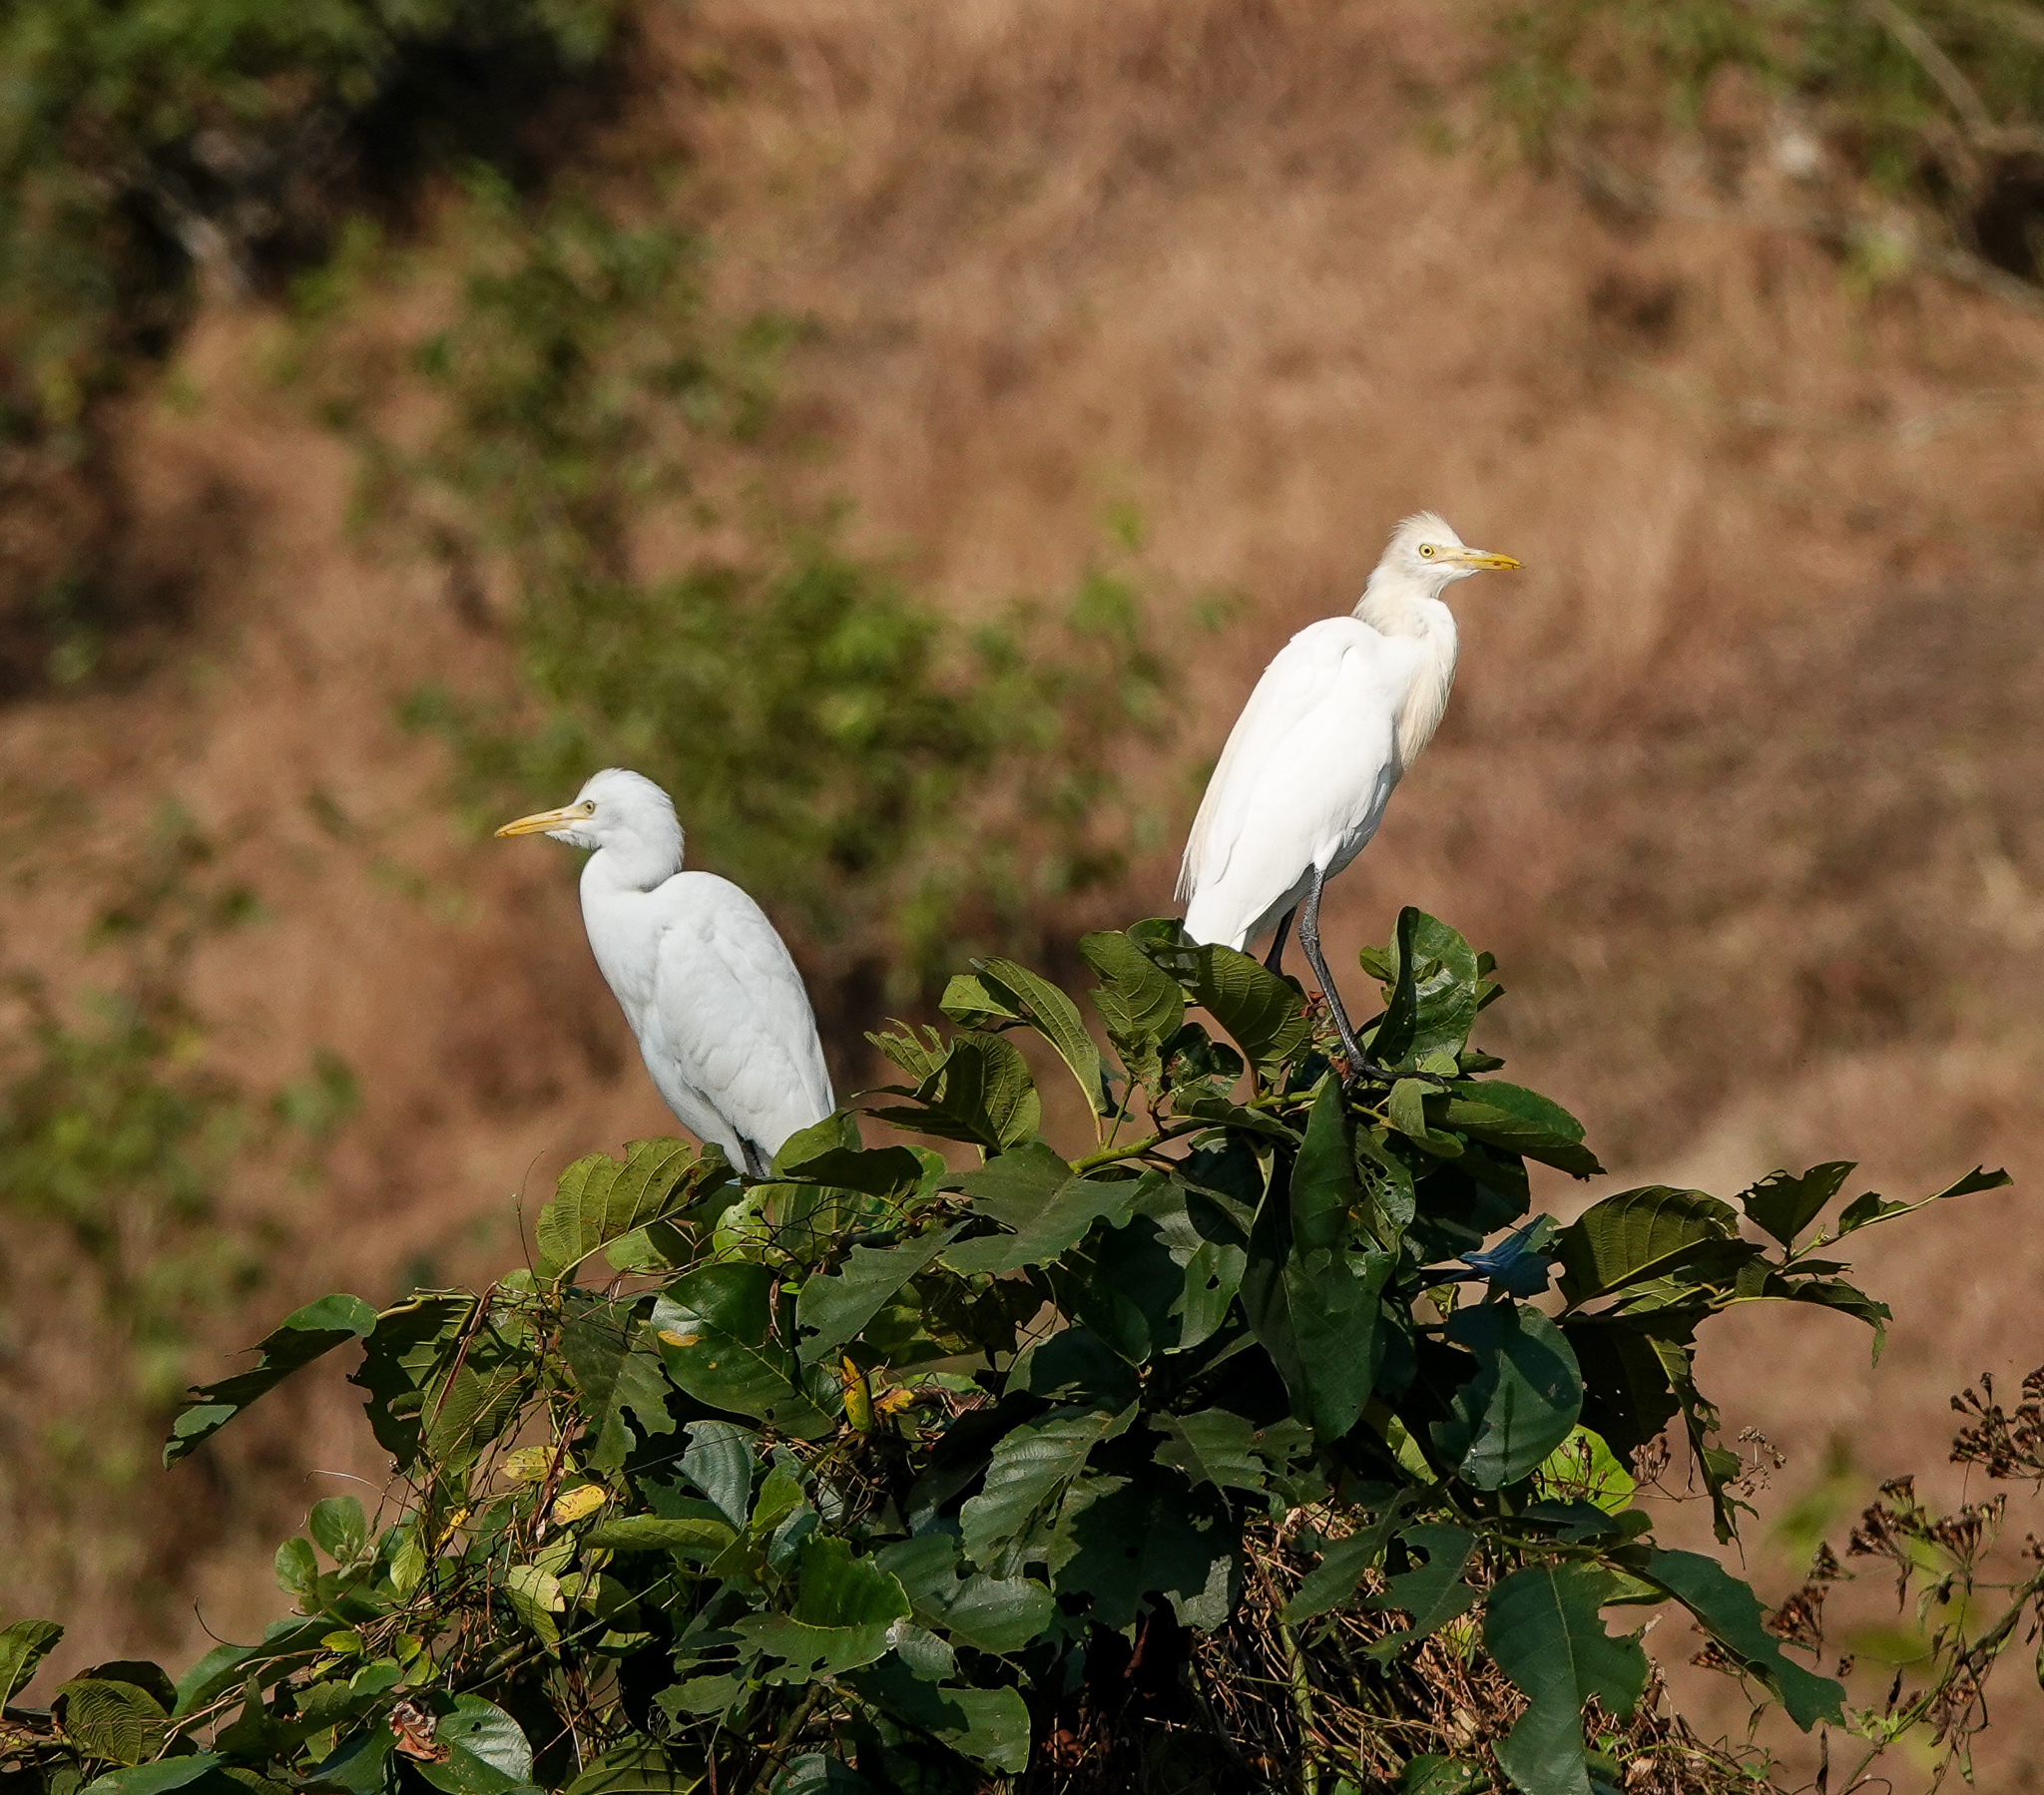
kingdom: Animalia
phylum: Chordata
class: Aves
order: Pelecaniformes
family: Ardeidae
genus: Bubulcus
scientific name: Bubulcus coromandus
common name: Eastern cattle egret
